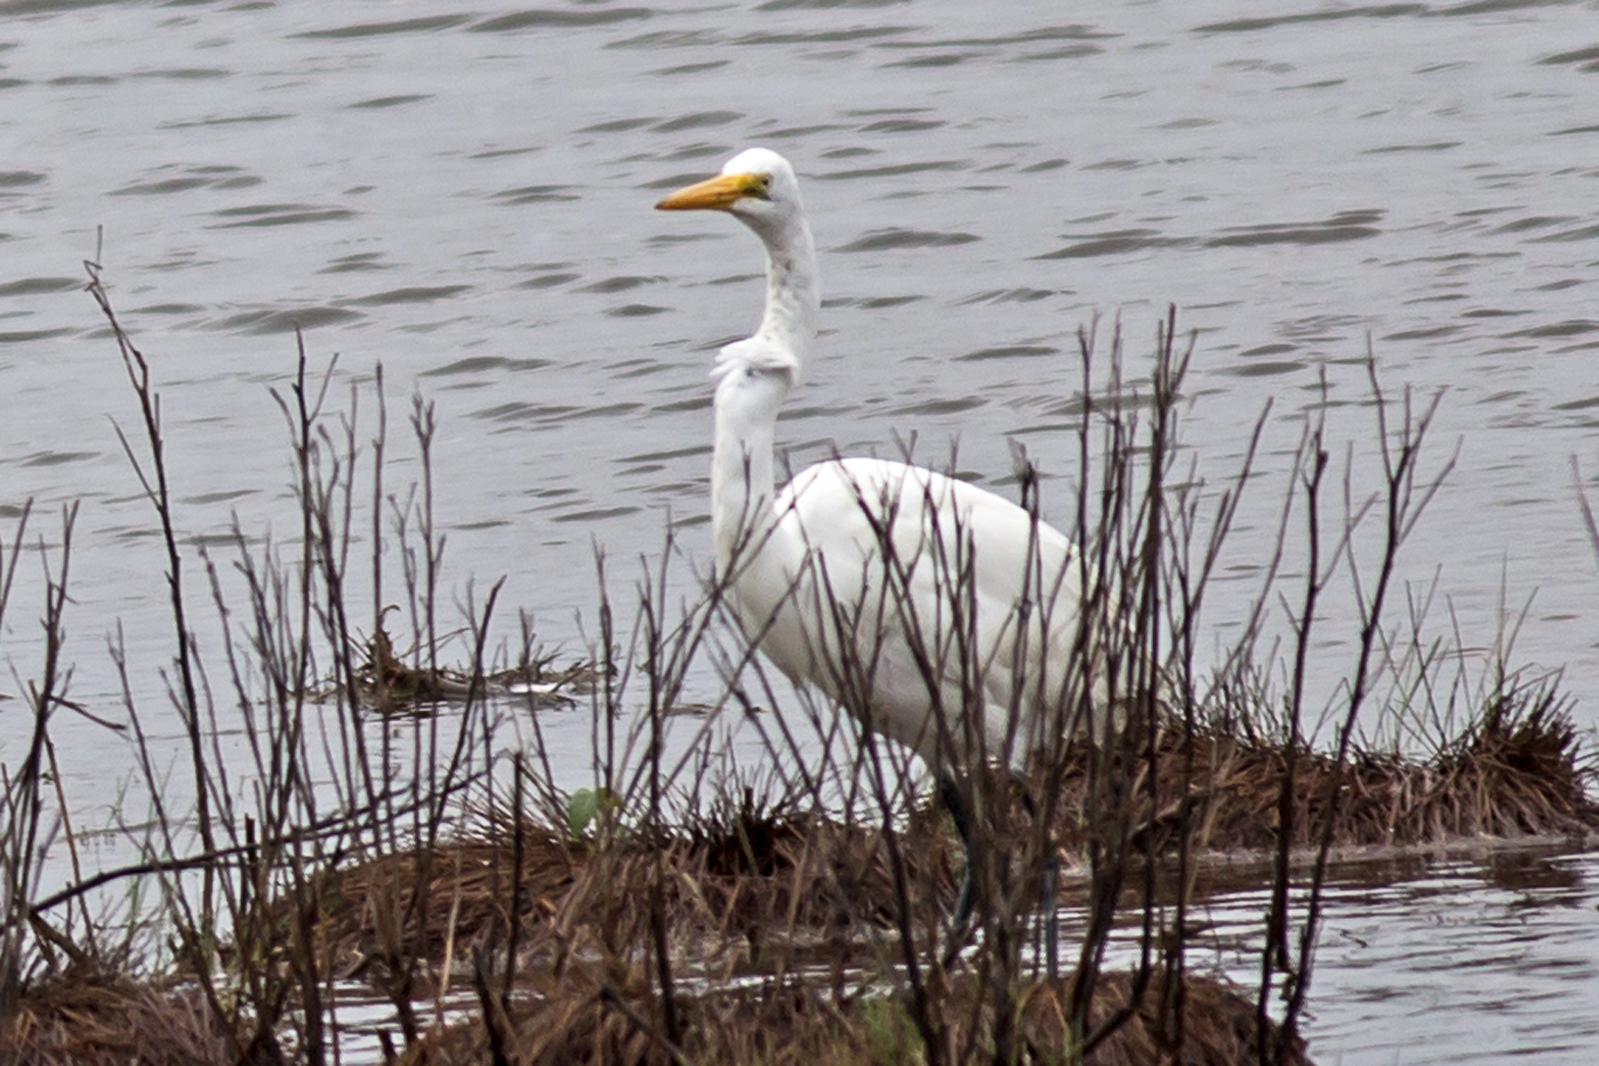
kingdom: Animalia
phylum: Chordata
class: Aves
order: Pelecaniformes
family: Ardeidae
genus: Ardea
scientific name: Ardea alba
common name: Great egret
